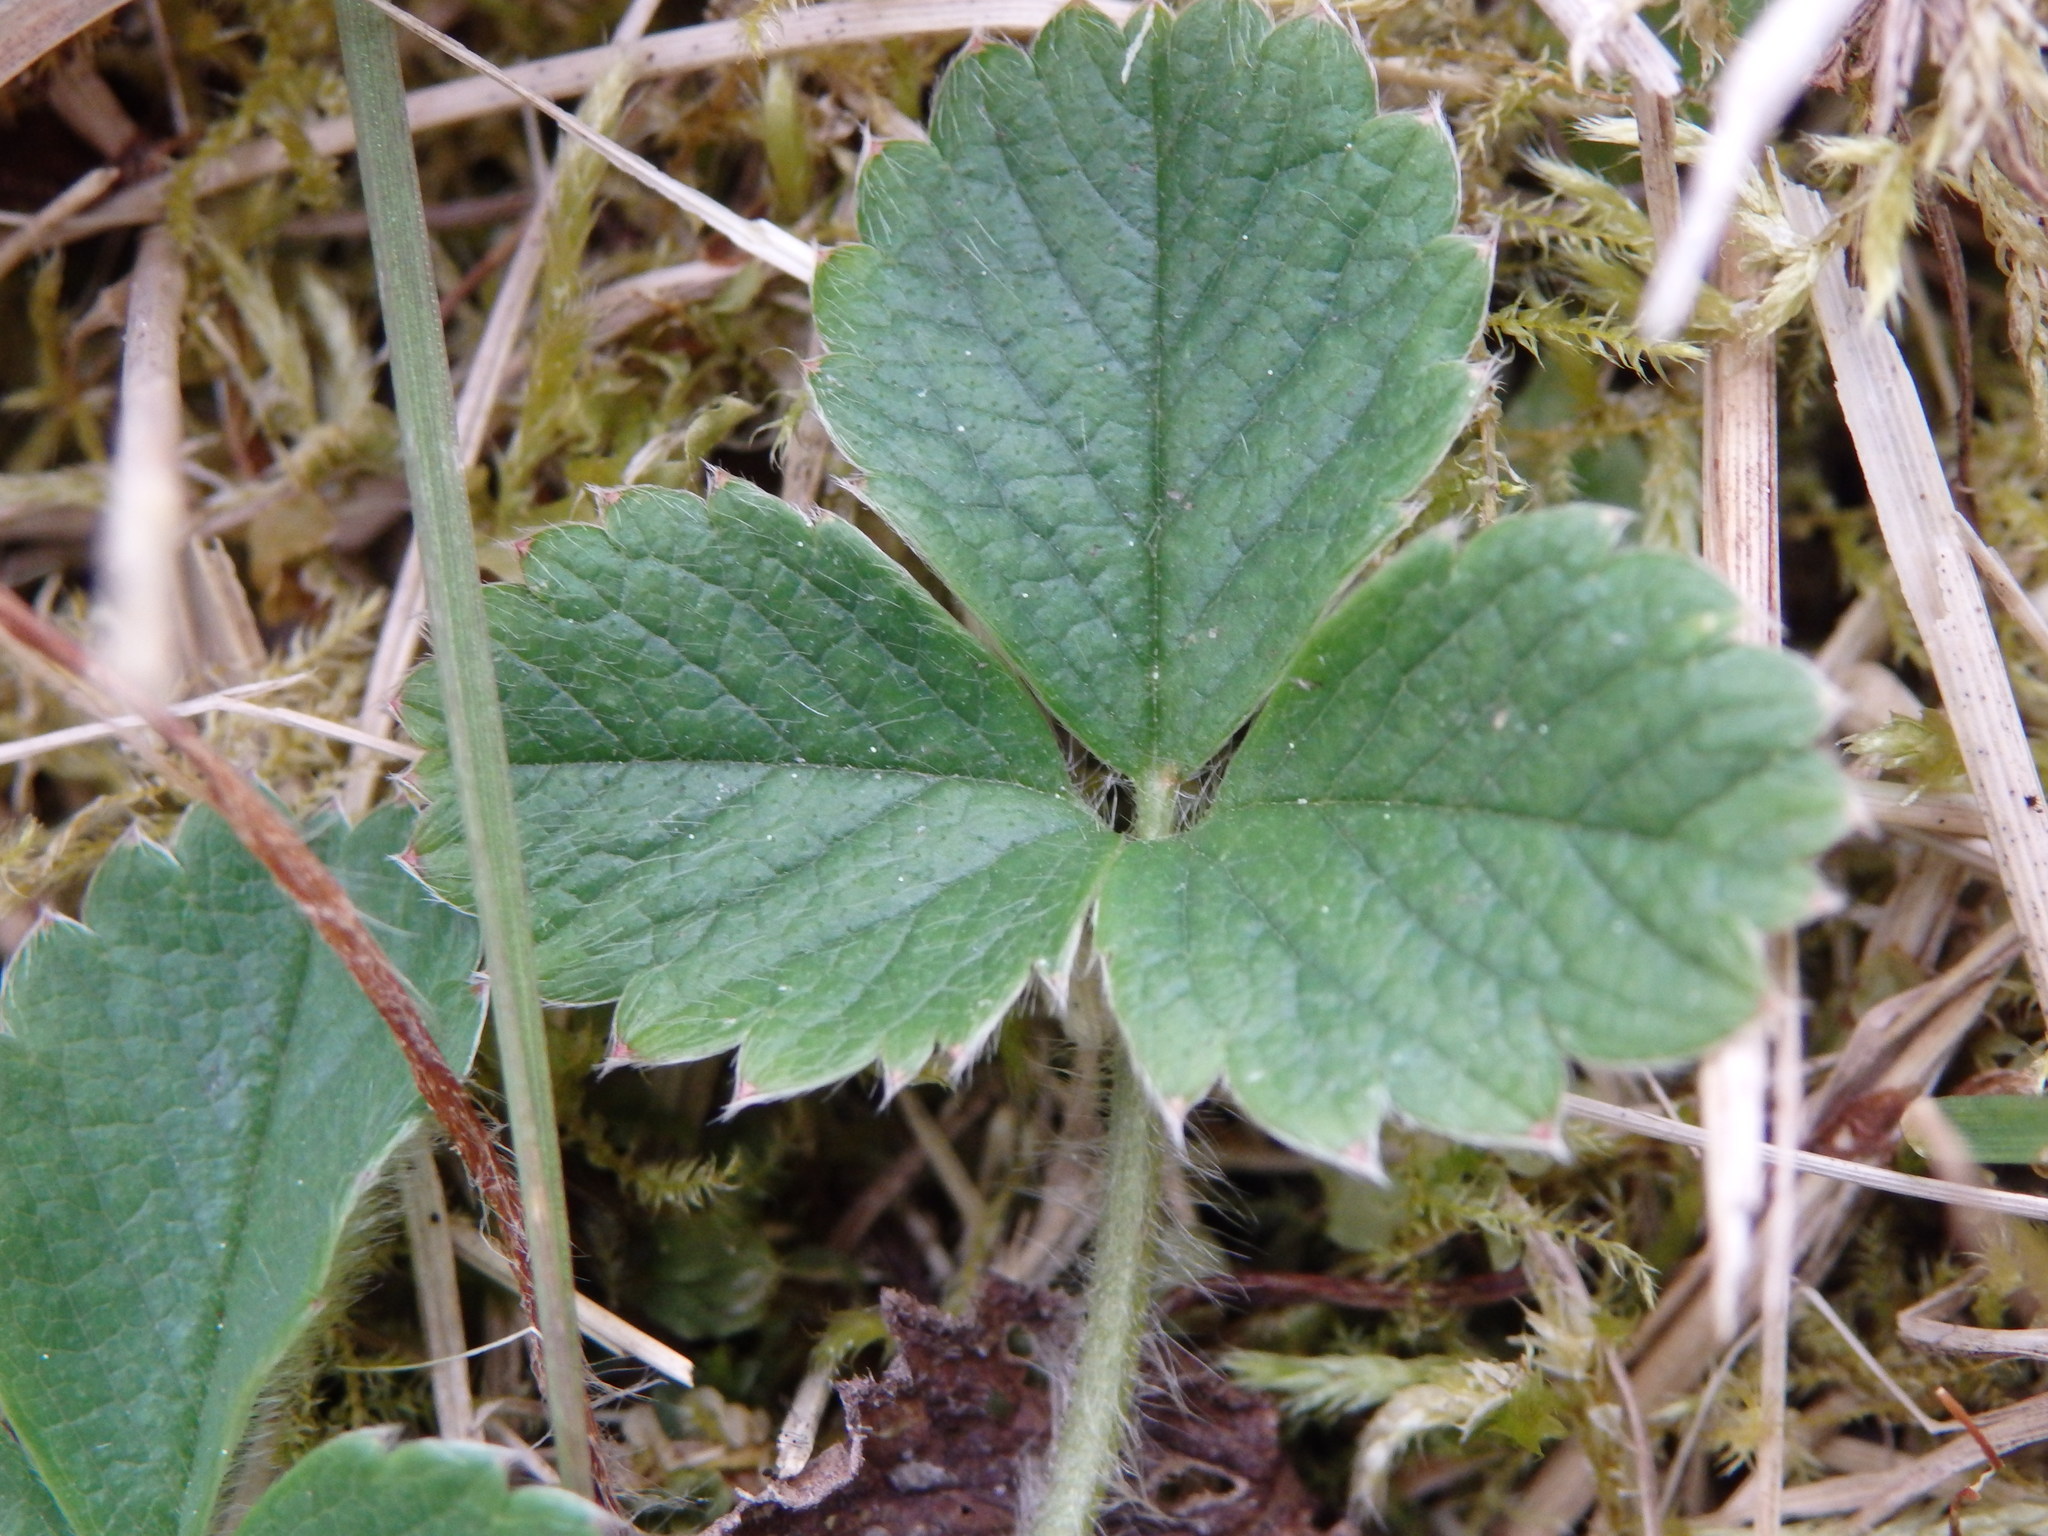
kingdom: Plantae
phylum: Tracheophyta
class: Magnoliopsida
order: Rosales
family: Rosaceae
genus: Potentilla
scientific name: Potentilla sterilis
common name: Barren strawberry
